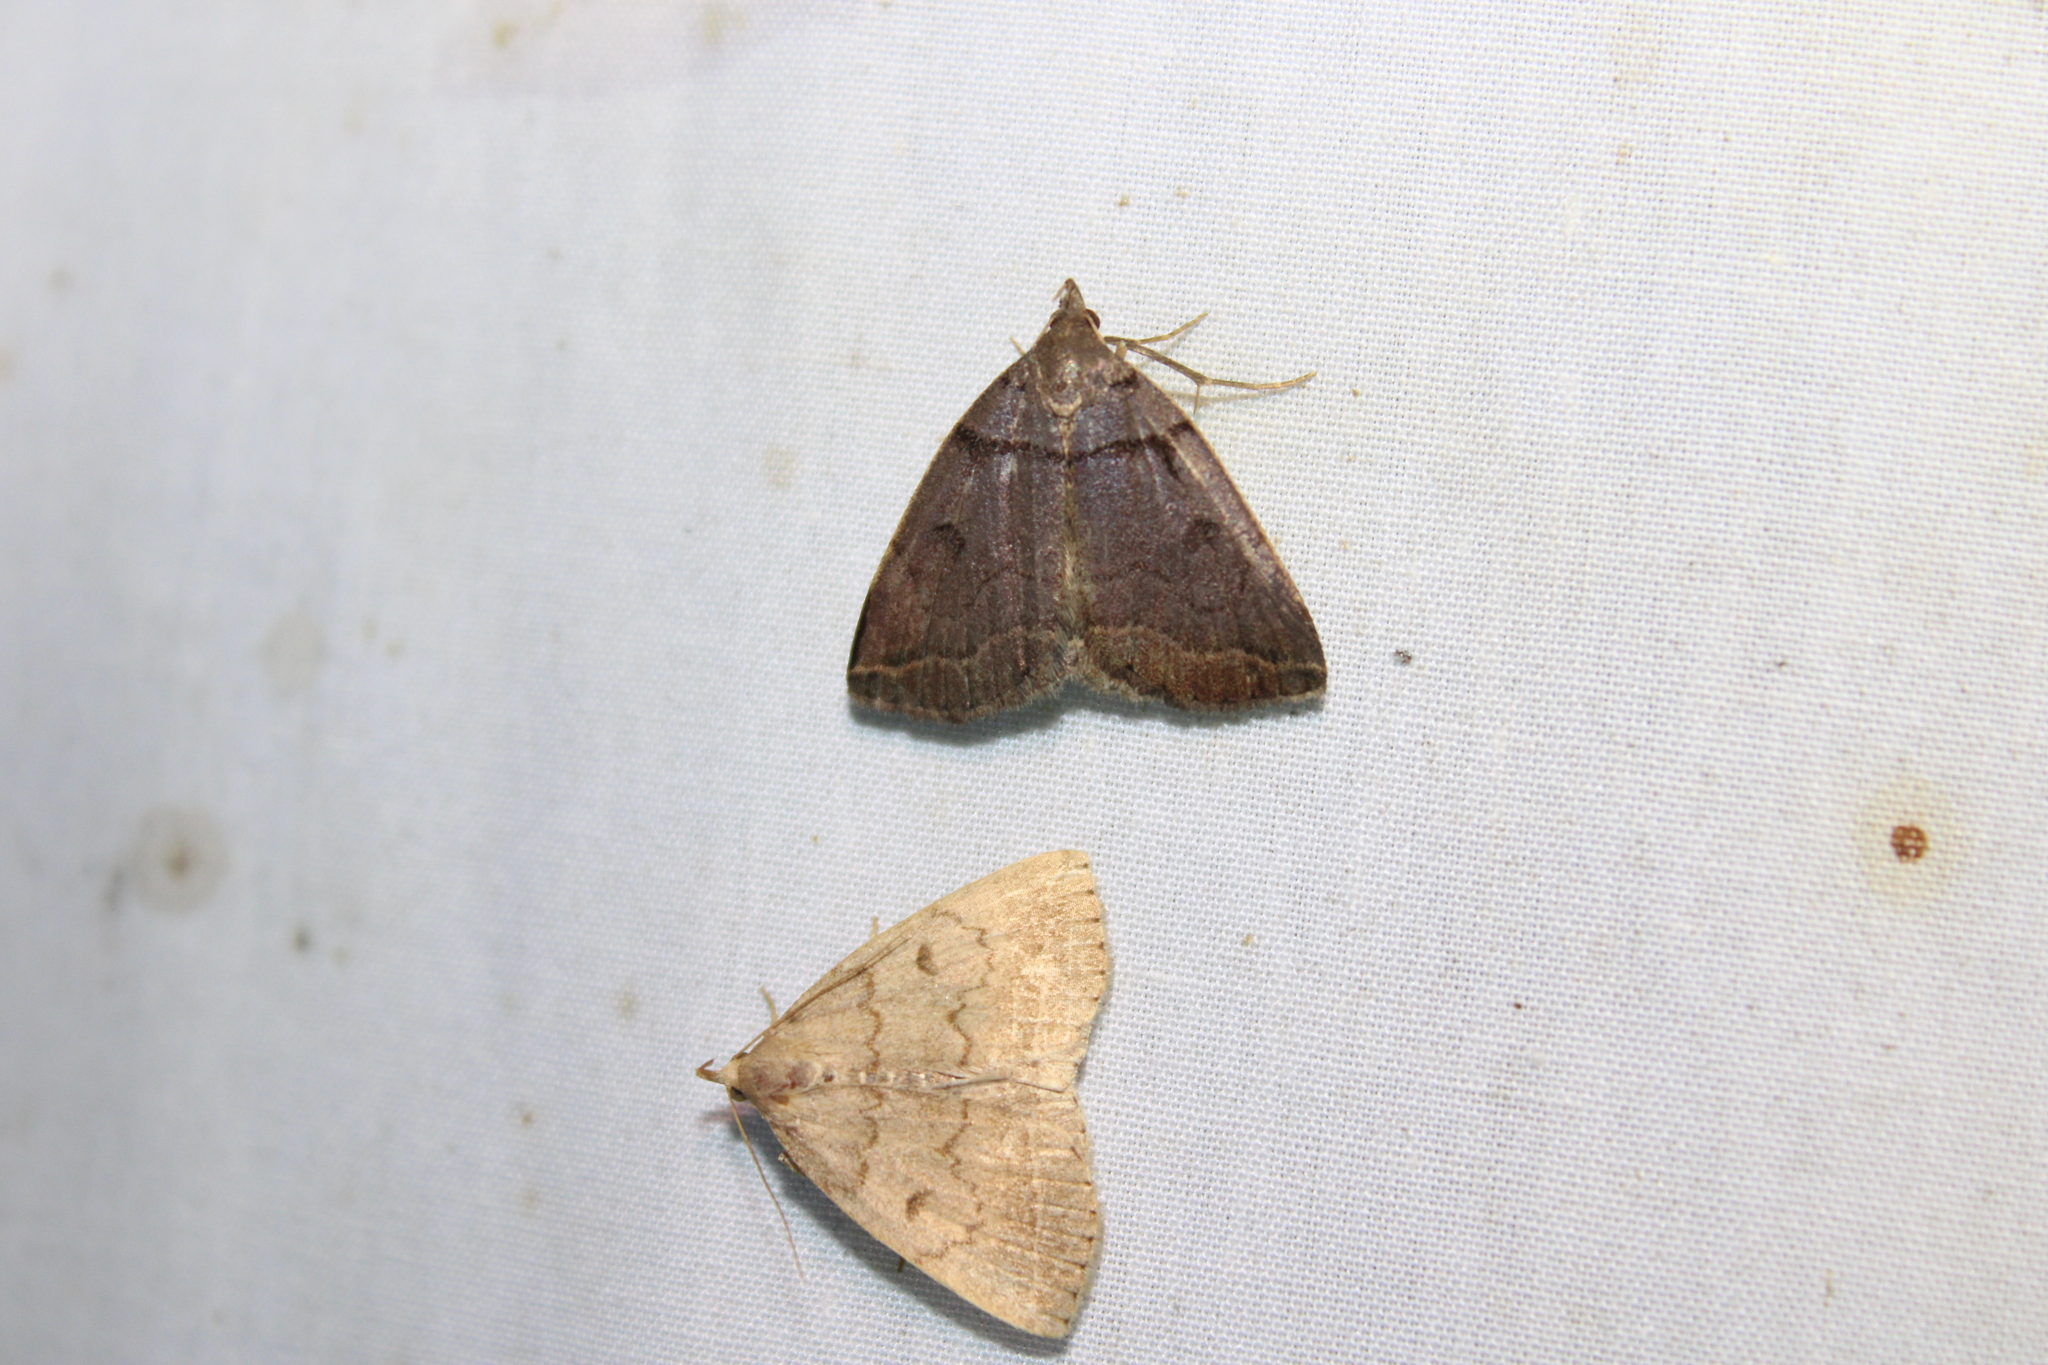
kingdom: Animalia
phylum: Arthropoda
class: Insecta
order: Lepidoptera
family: Erebidae
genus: Zanclognatha
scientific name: Zanclognatha laevigata
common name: Variable fan-foot
